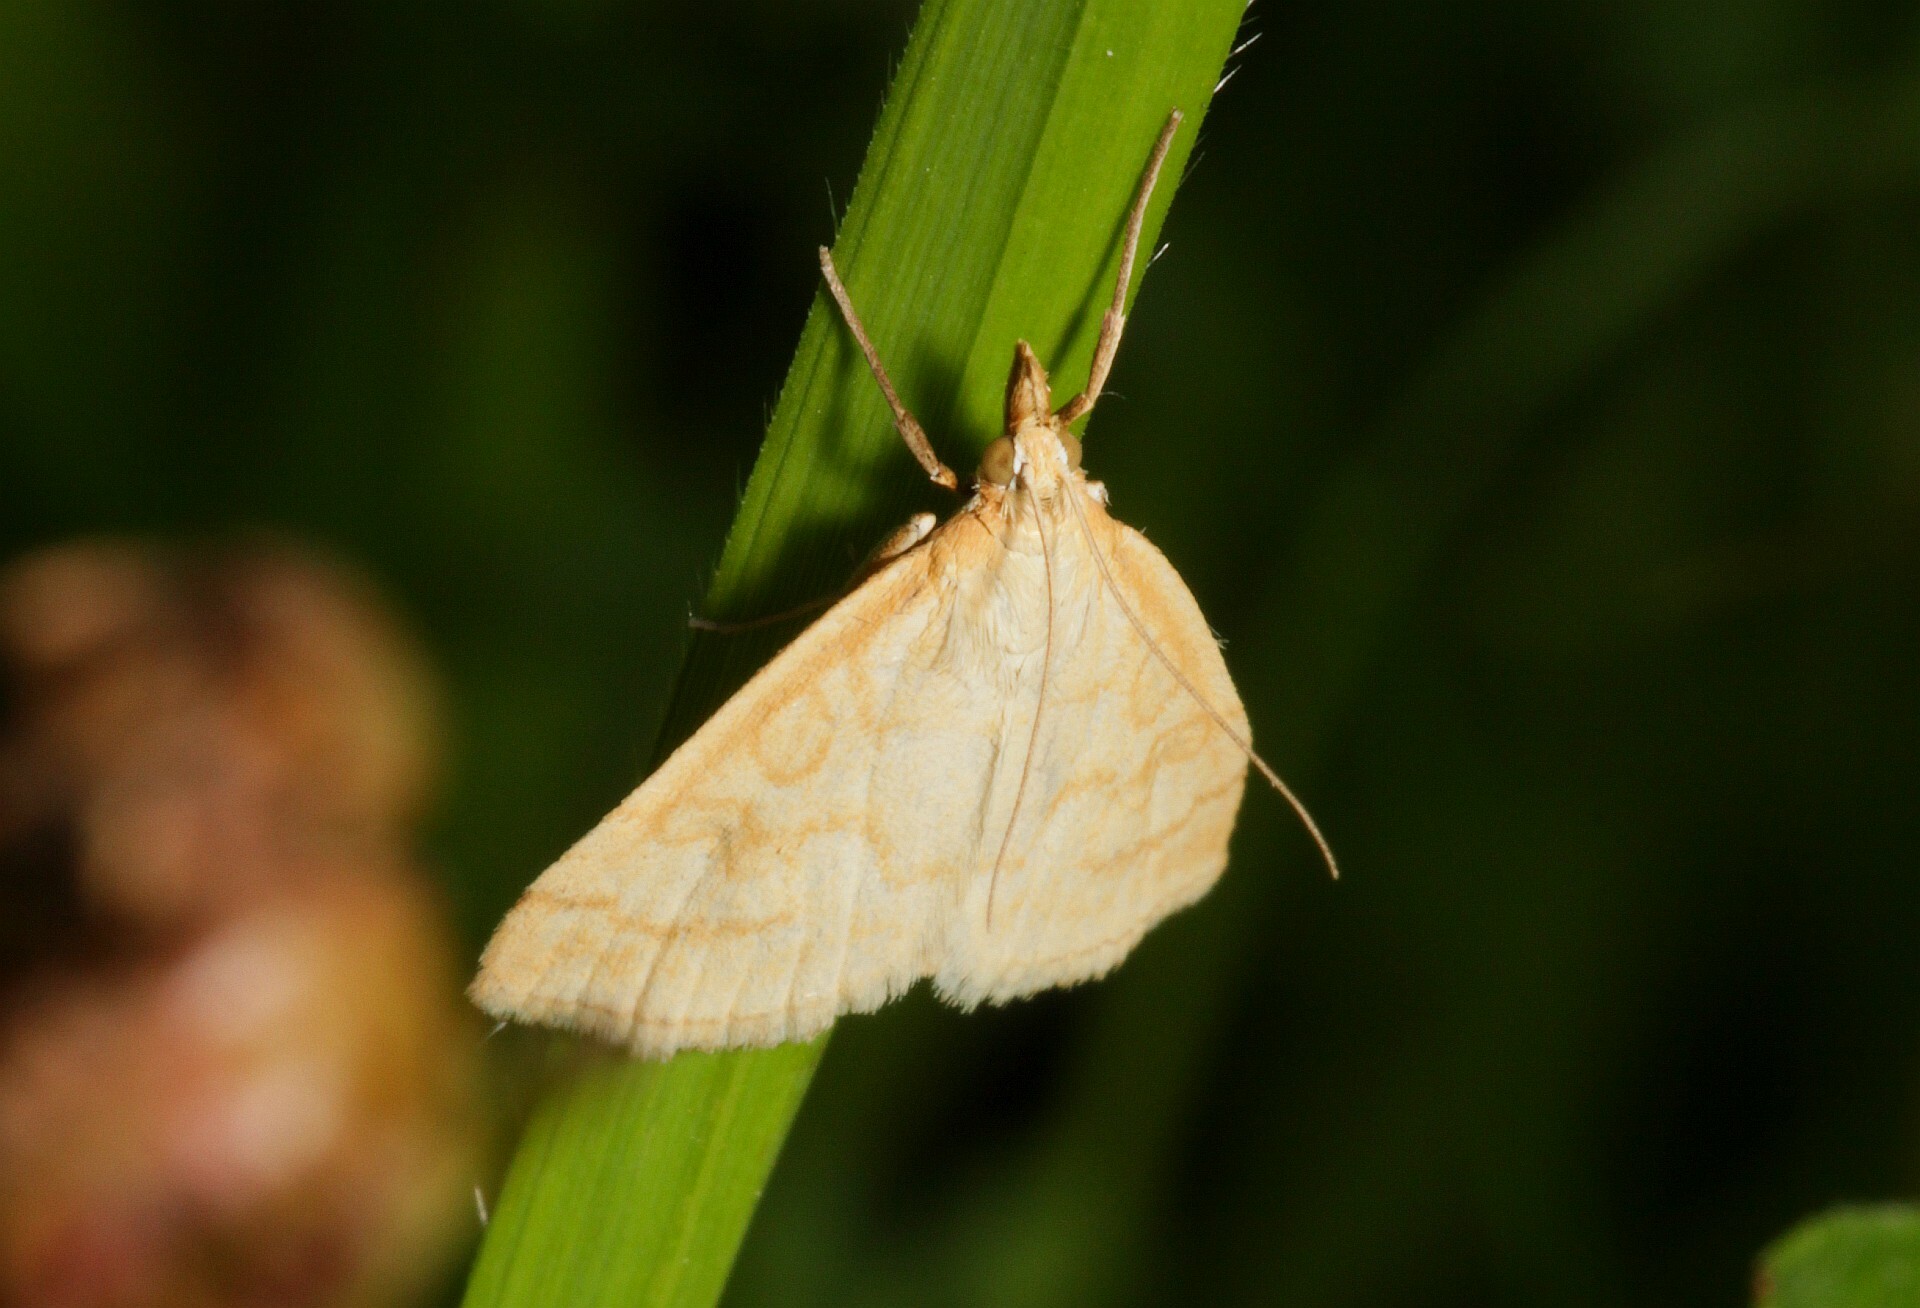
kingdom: Animalia
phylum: Arthropoda
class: Insecta
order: Lepidoptera
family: Crambidae
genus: Udea
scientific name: Udea lutealis
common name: Pale straw pearl
